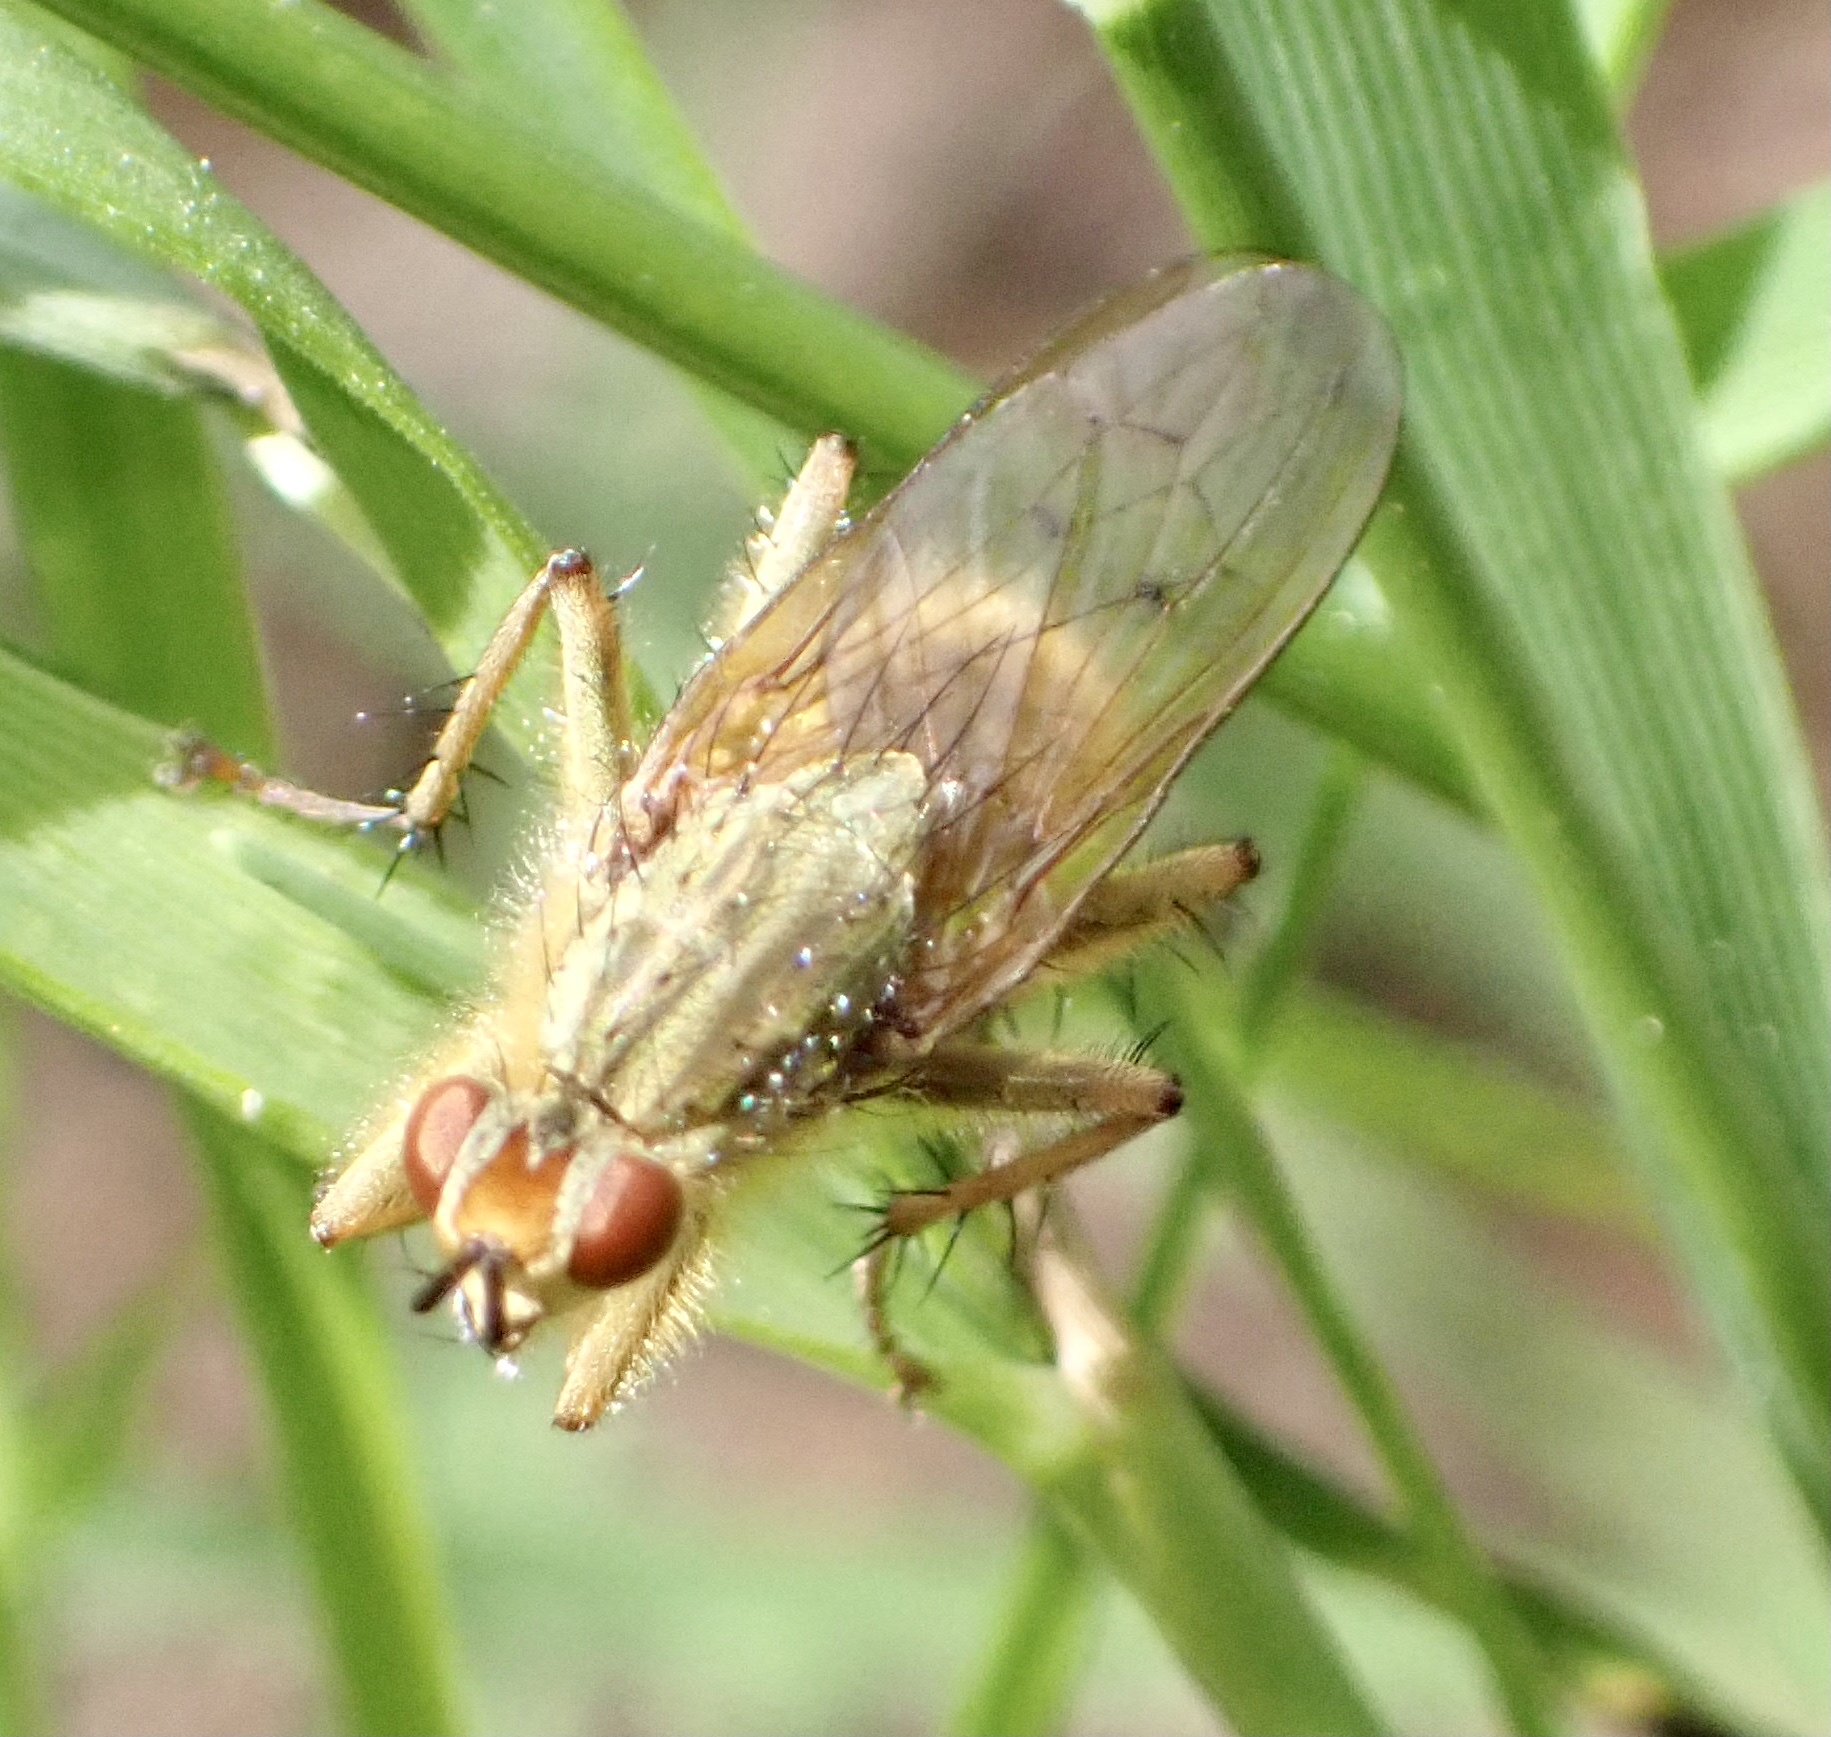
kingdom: Animalia
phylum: Arthropoda
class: Insecta
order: Diptera
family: Scathophagidae
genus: Scathophaga
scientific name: Scathophaga stercoraria
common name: Yellow dung fly
